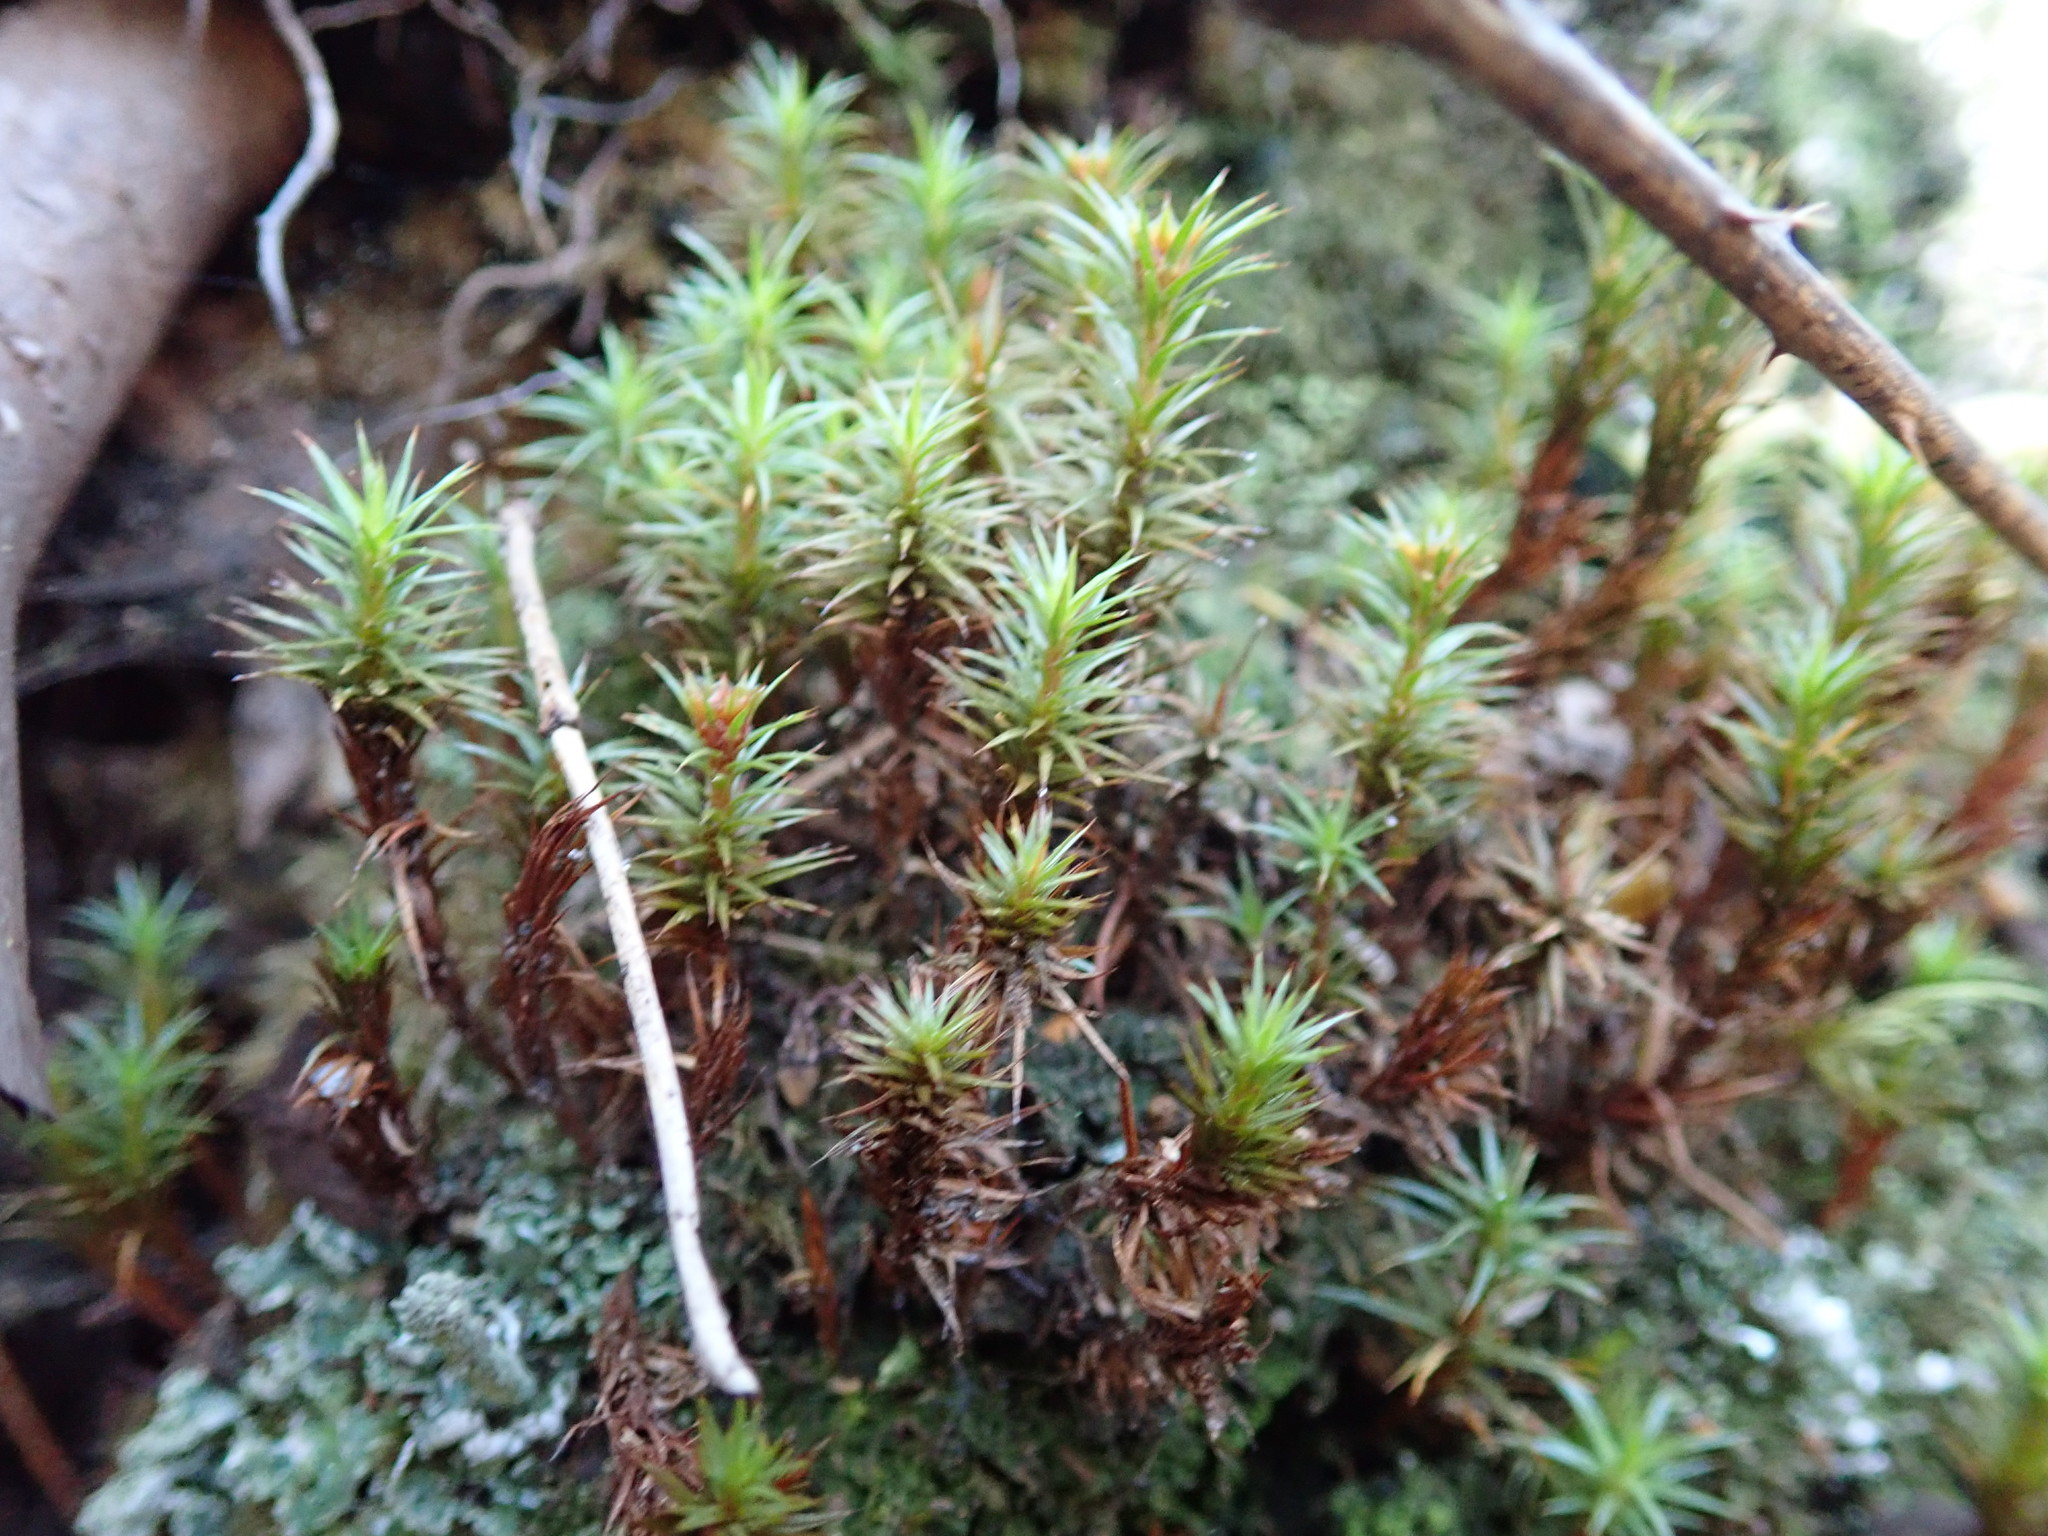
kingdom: Plantae
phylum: Bryophyta
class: Polytrichopsida
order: Polytrichales
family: Polytrichaceae
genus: Polytrichum
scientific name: Polytrichum juniperinum
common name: Juniper haircap moss
